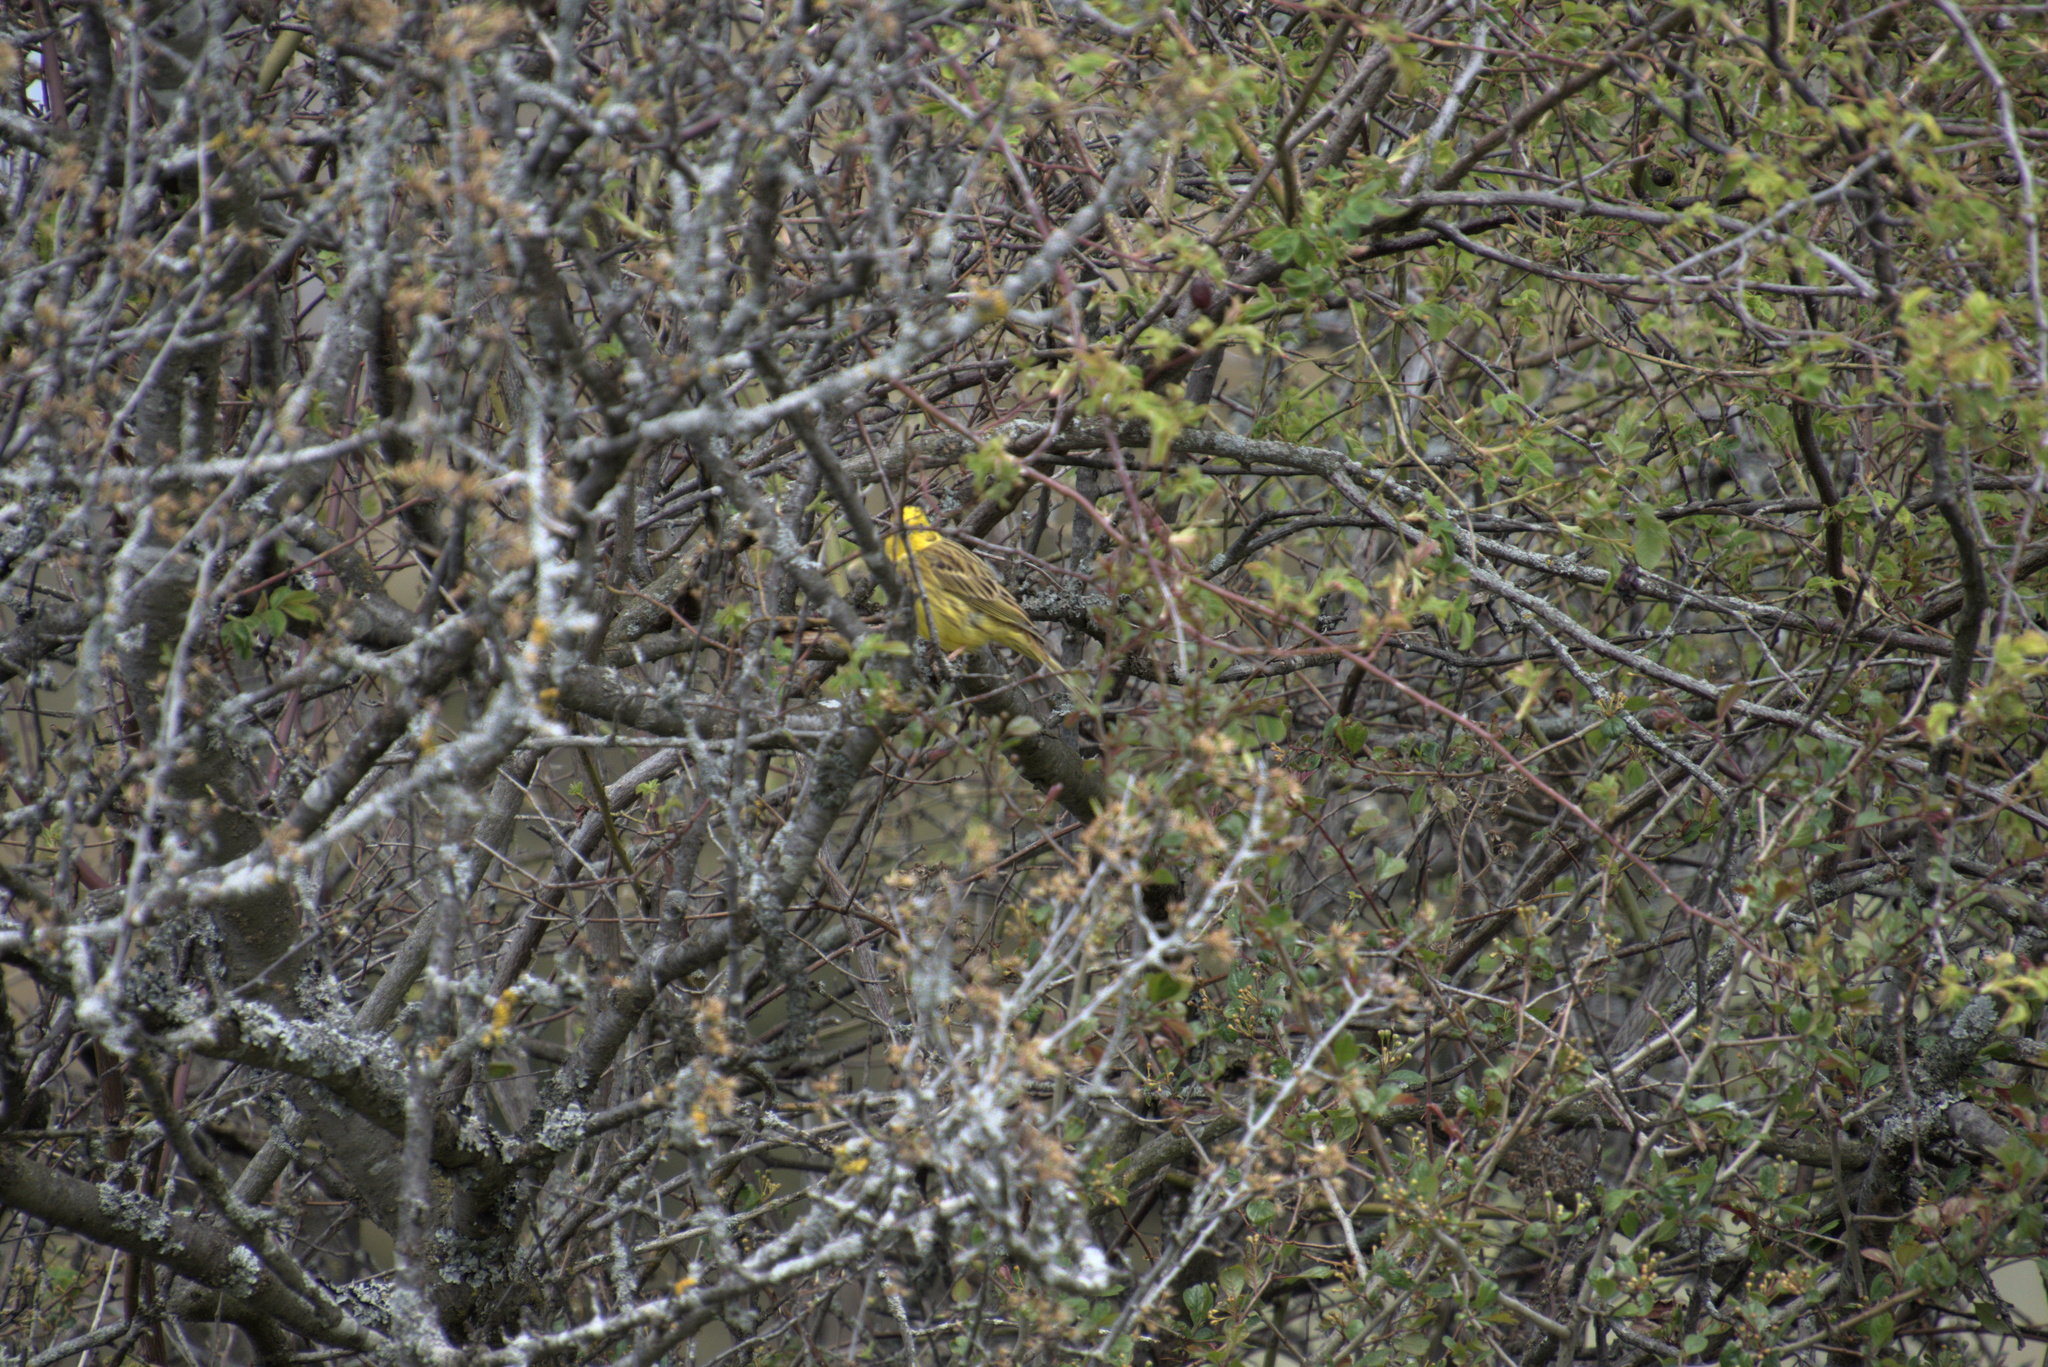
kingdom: Animalia
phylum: Chordata
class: Aves
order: Passeriformes
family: Emberizidae
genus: Emberiza
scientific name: Emberiza citrinella
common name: Yellowhammer
